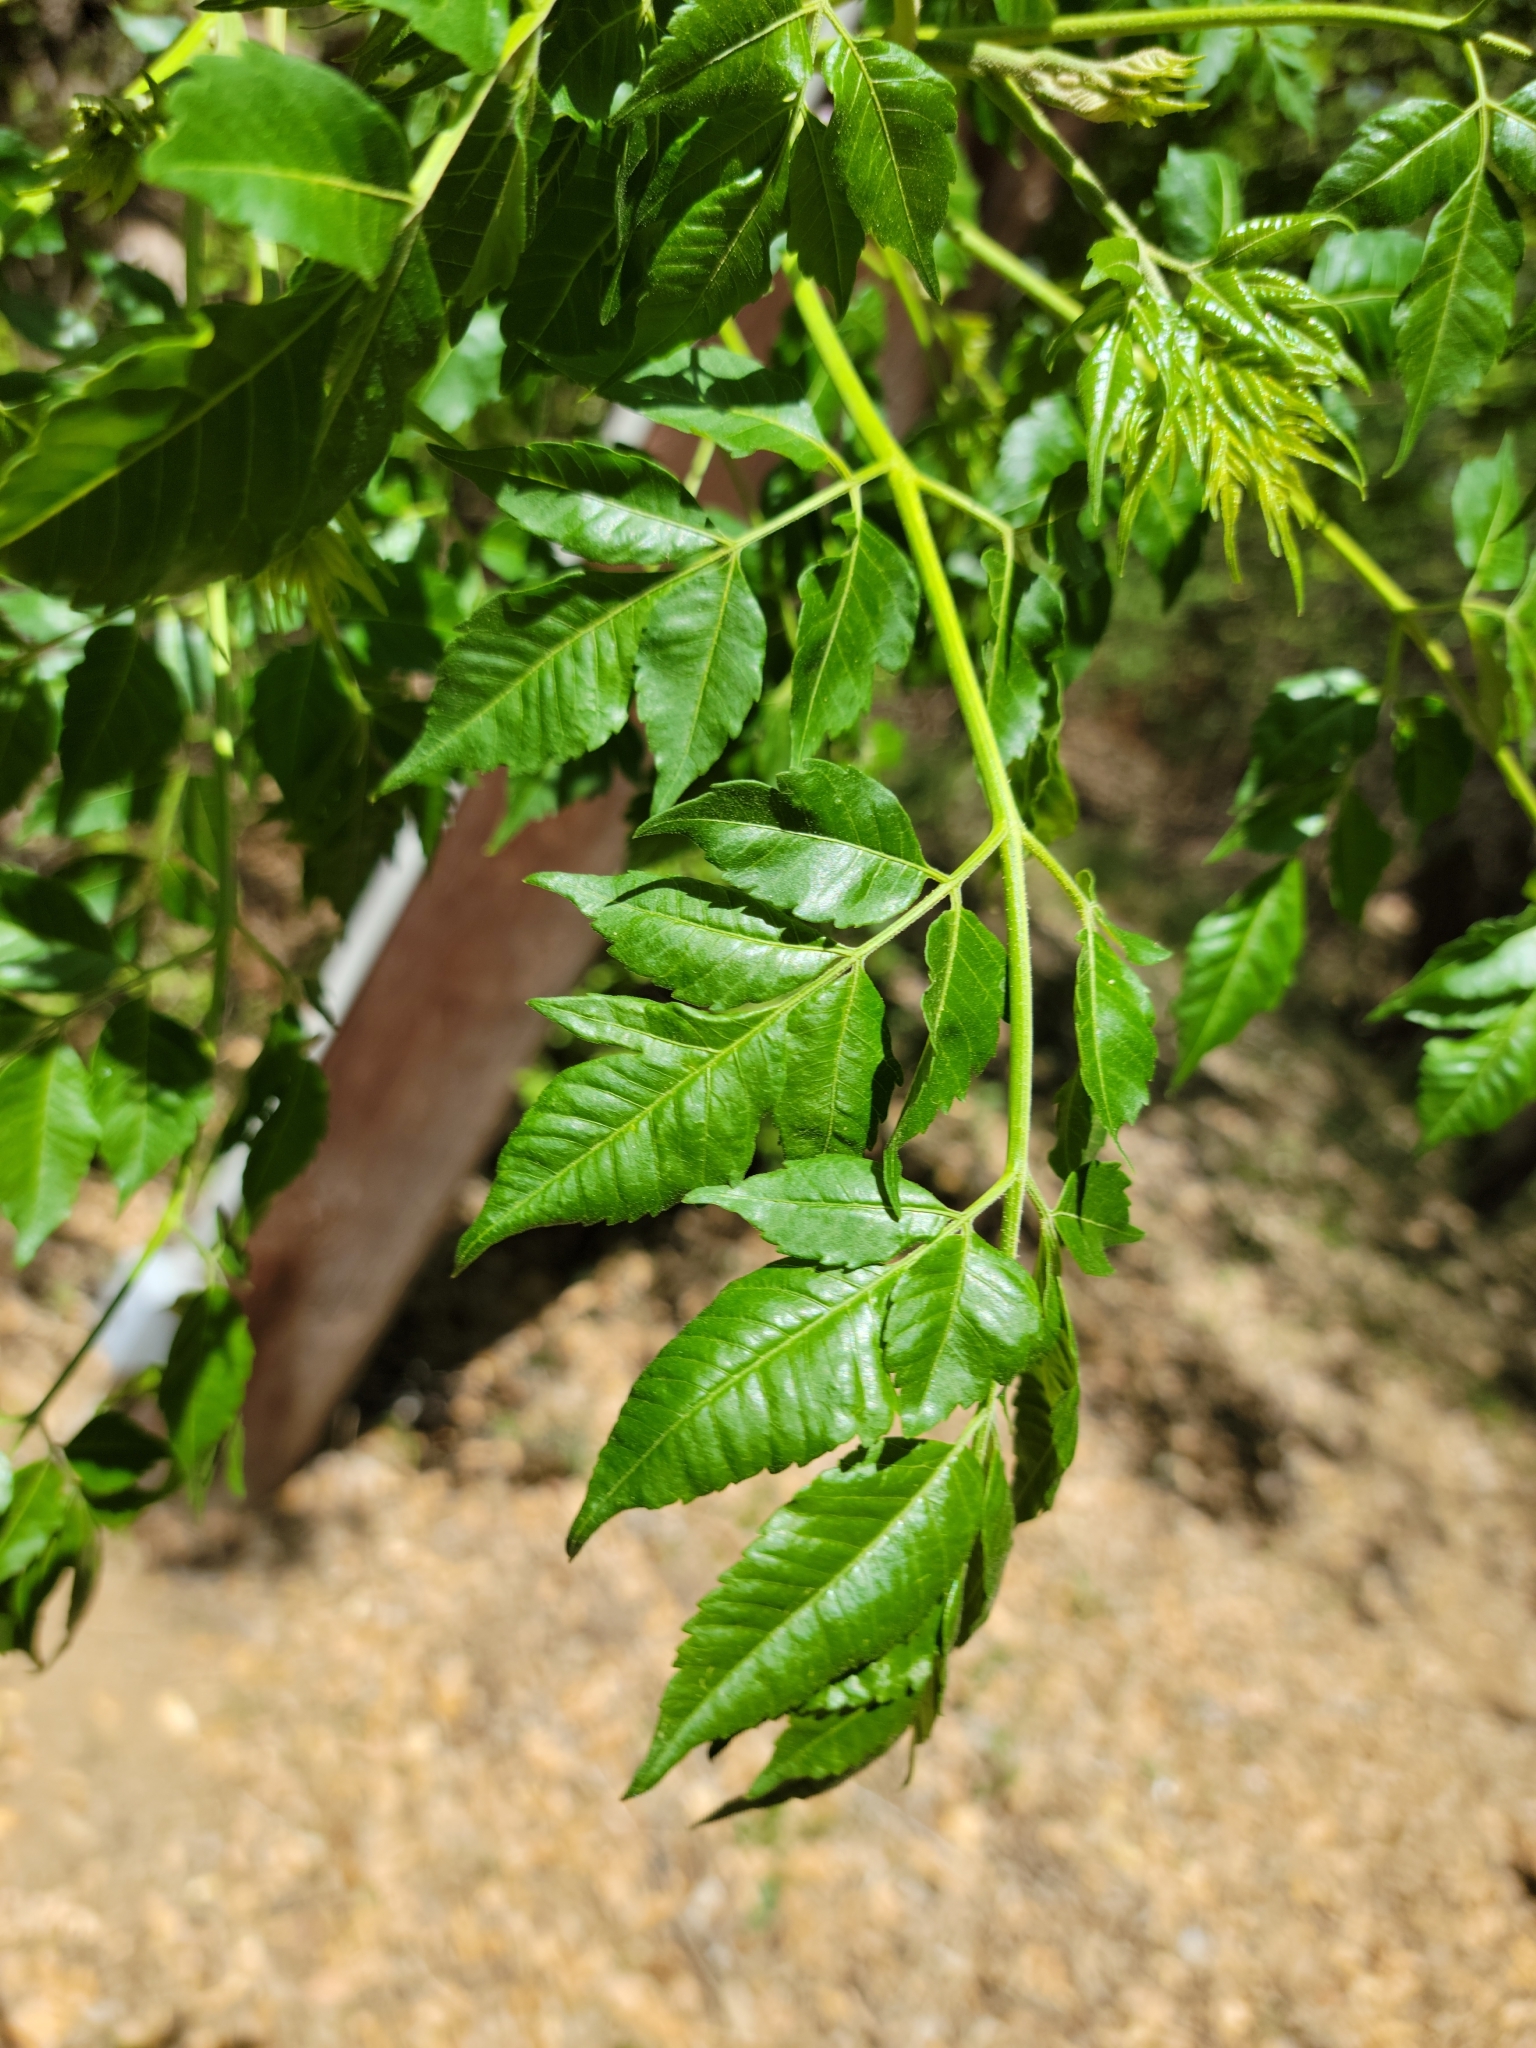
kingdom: Plantae
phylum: Tracheophyta
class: Magnoliopsida
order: Sapindales
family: Meliaceae
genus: Melia
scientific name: Melia azedarach
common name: Chinaberrytree
